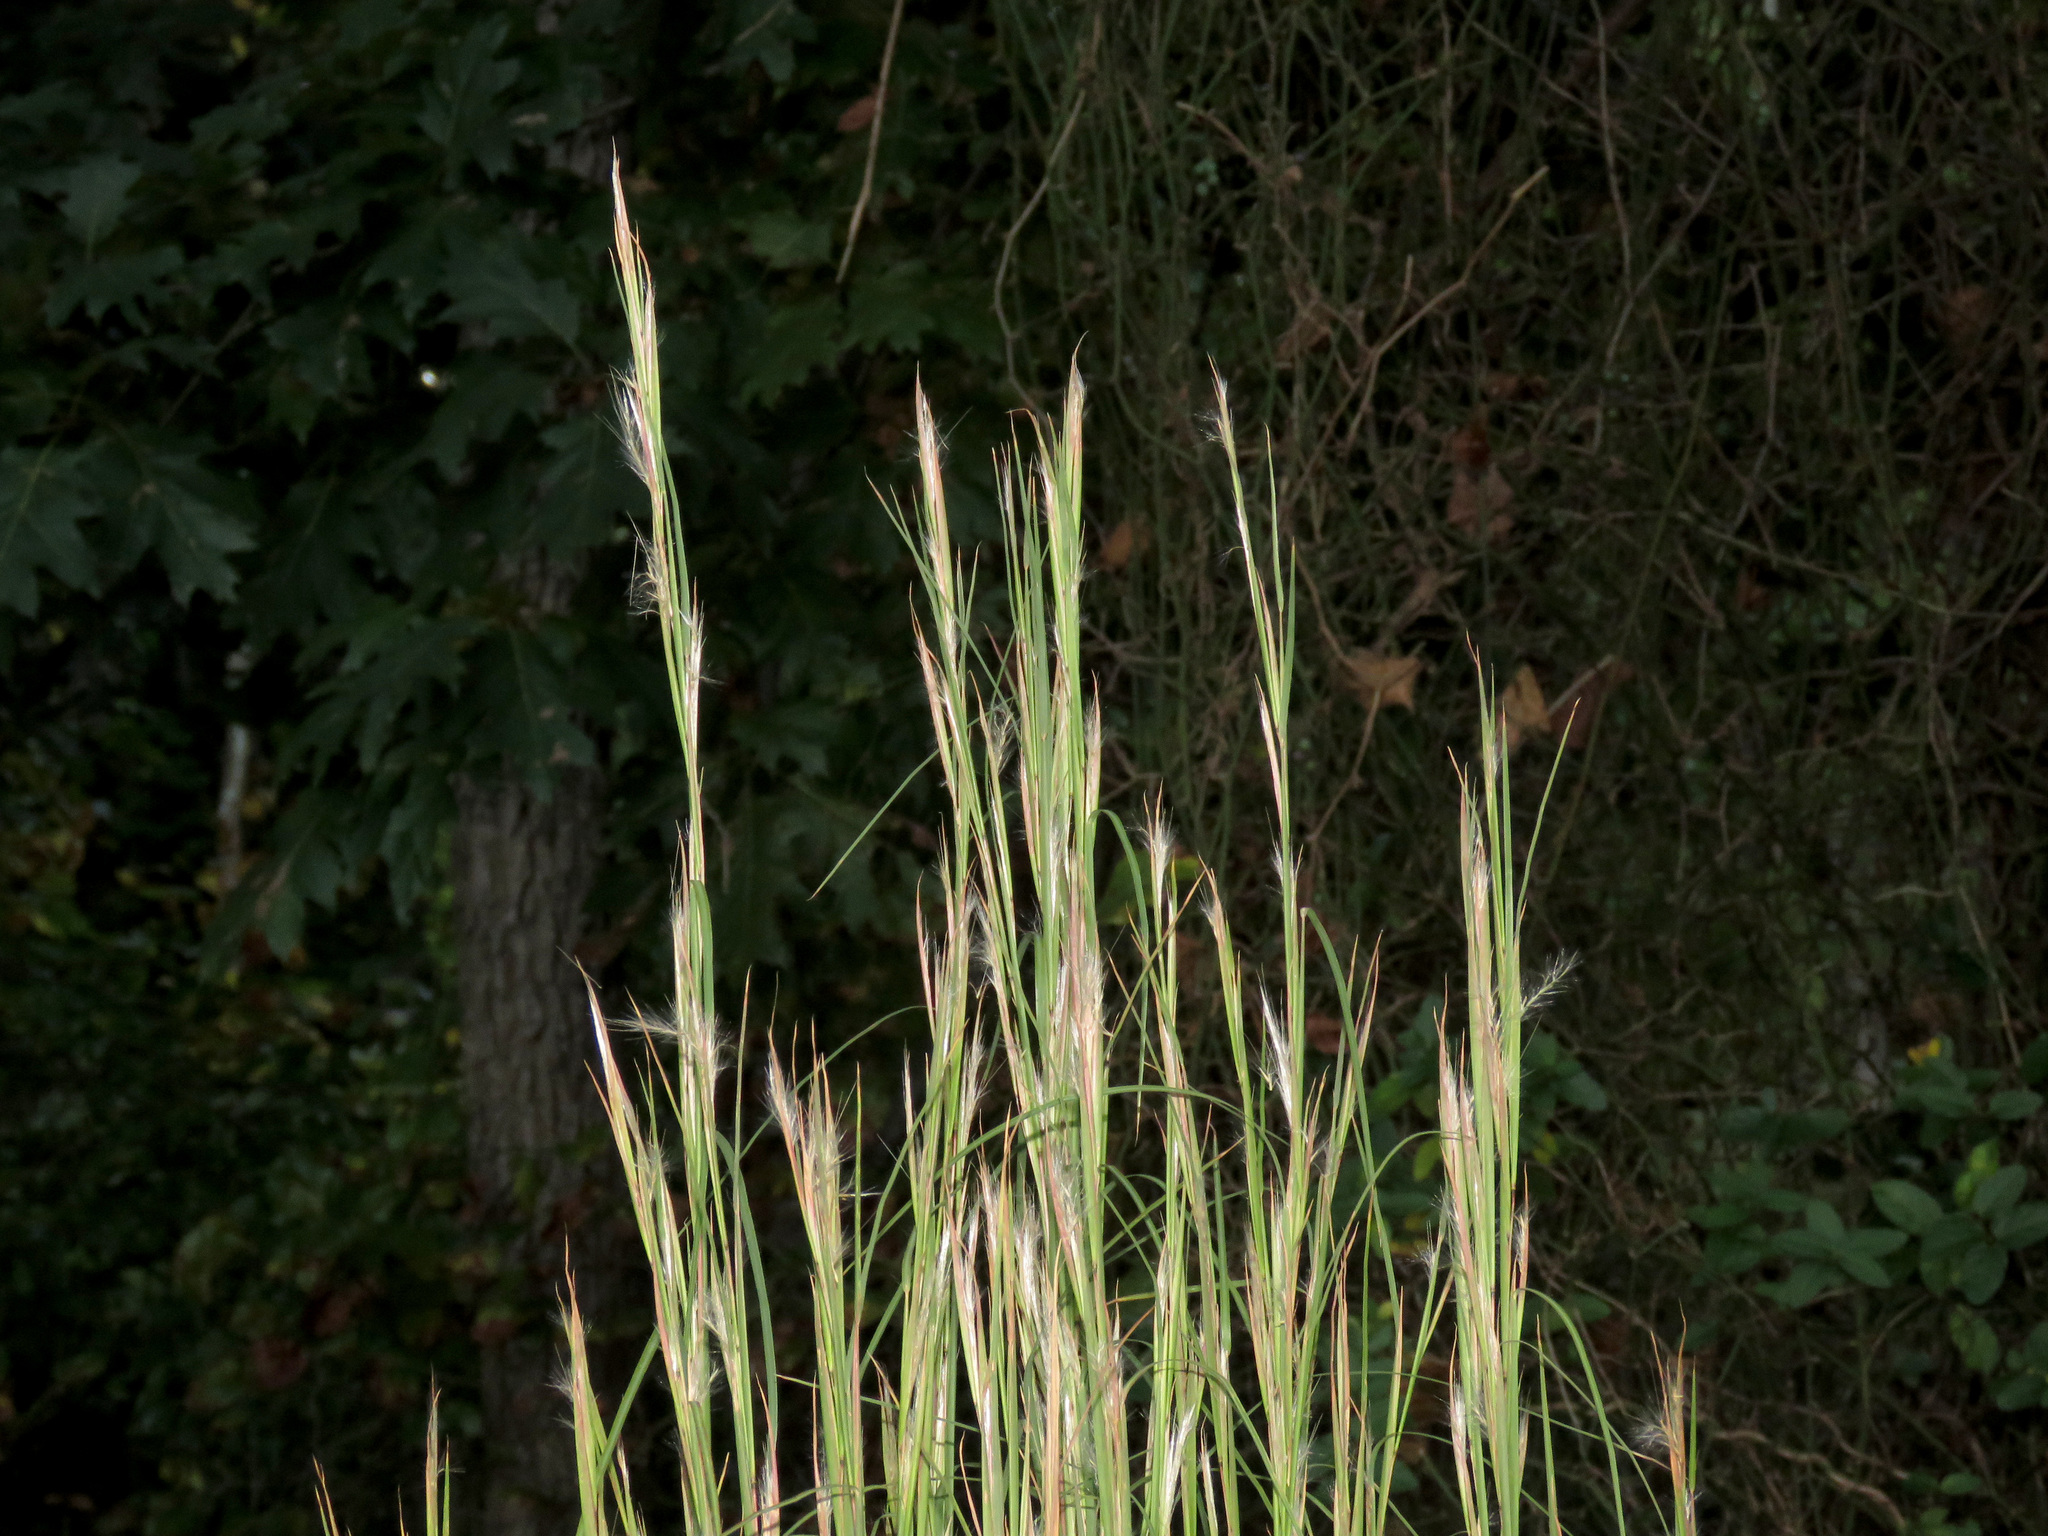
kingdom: Plantae
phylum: Tracheophyta
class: Liliopsida
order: Poales
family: Poaceae
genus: Schizachyrium
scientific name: Schizachyrium scoparium
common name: Little bluestem
